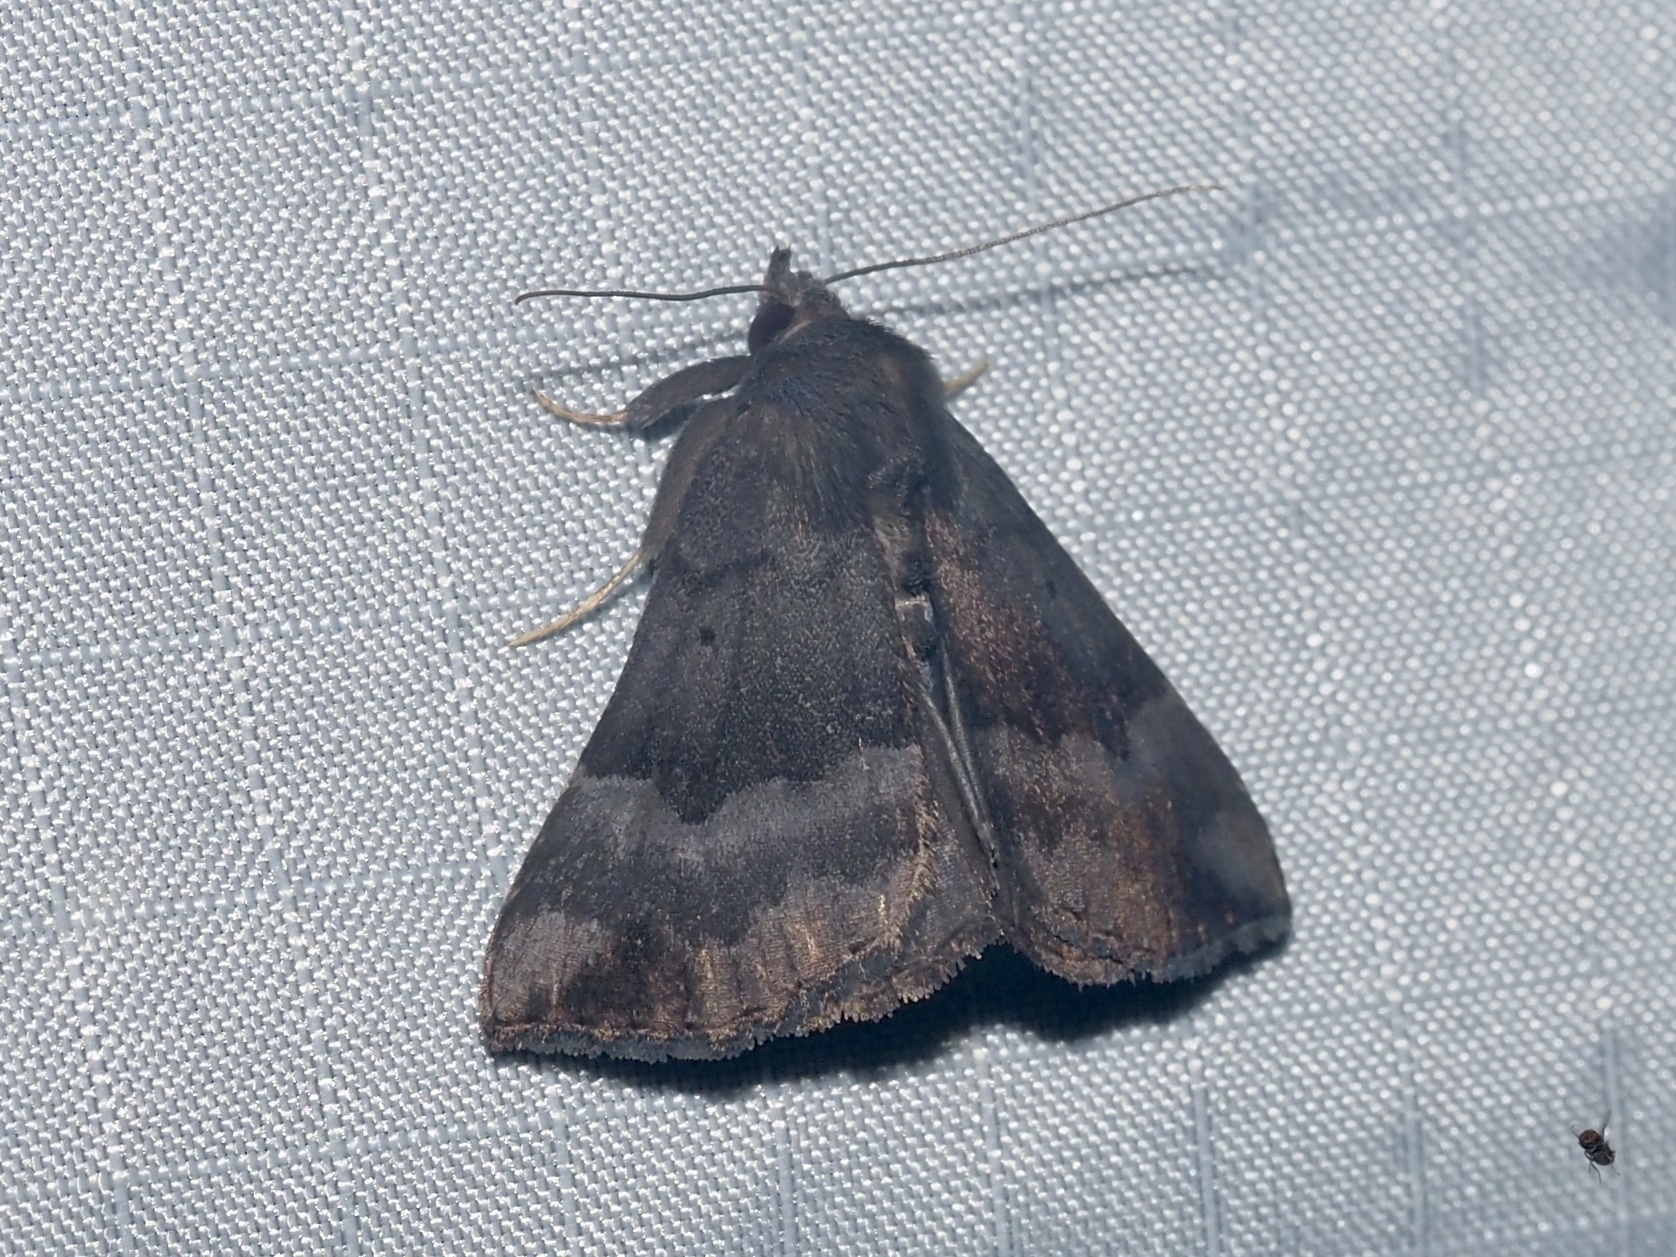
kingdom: Animalia
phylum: Arthropoda
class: Insecta
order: Lepidoptera
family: Erebidae
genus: Hypena
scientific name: Hypena madefactalis
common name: Gray-edged snout
